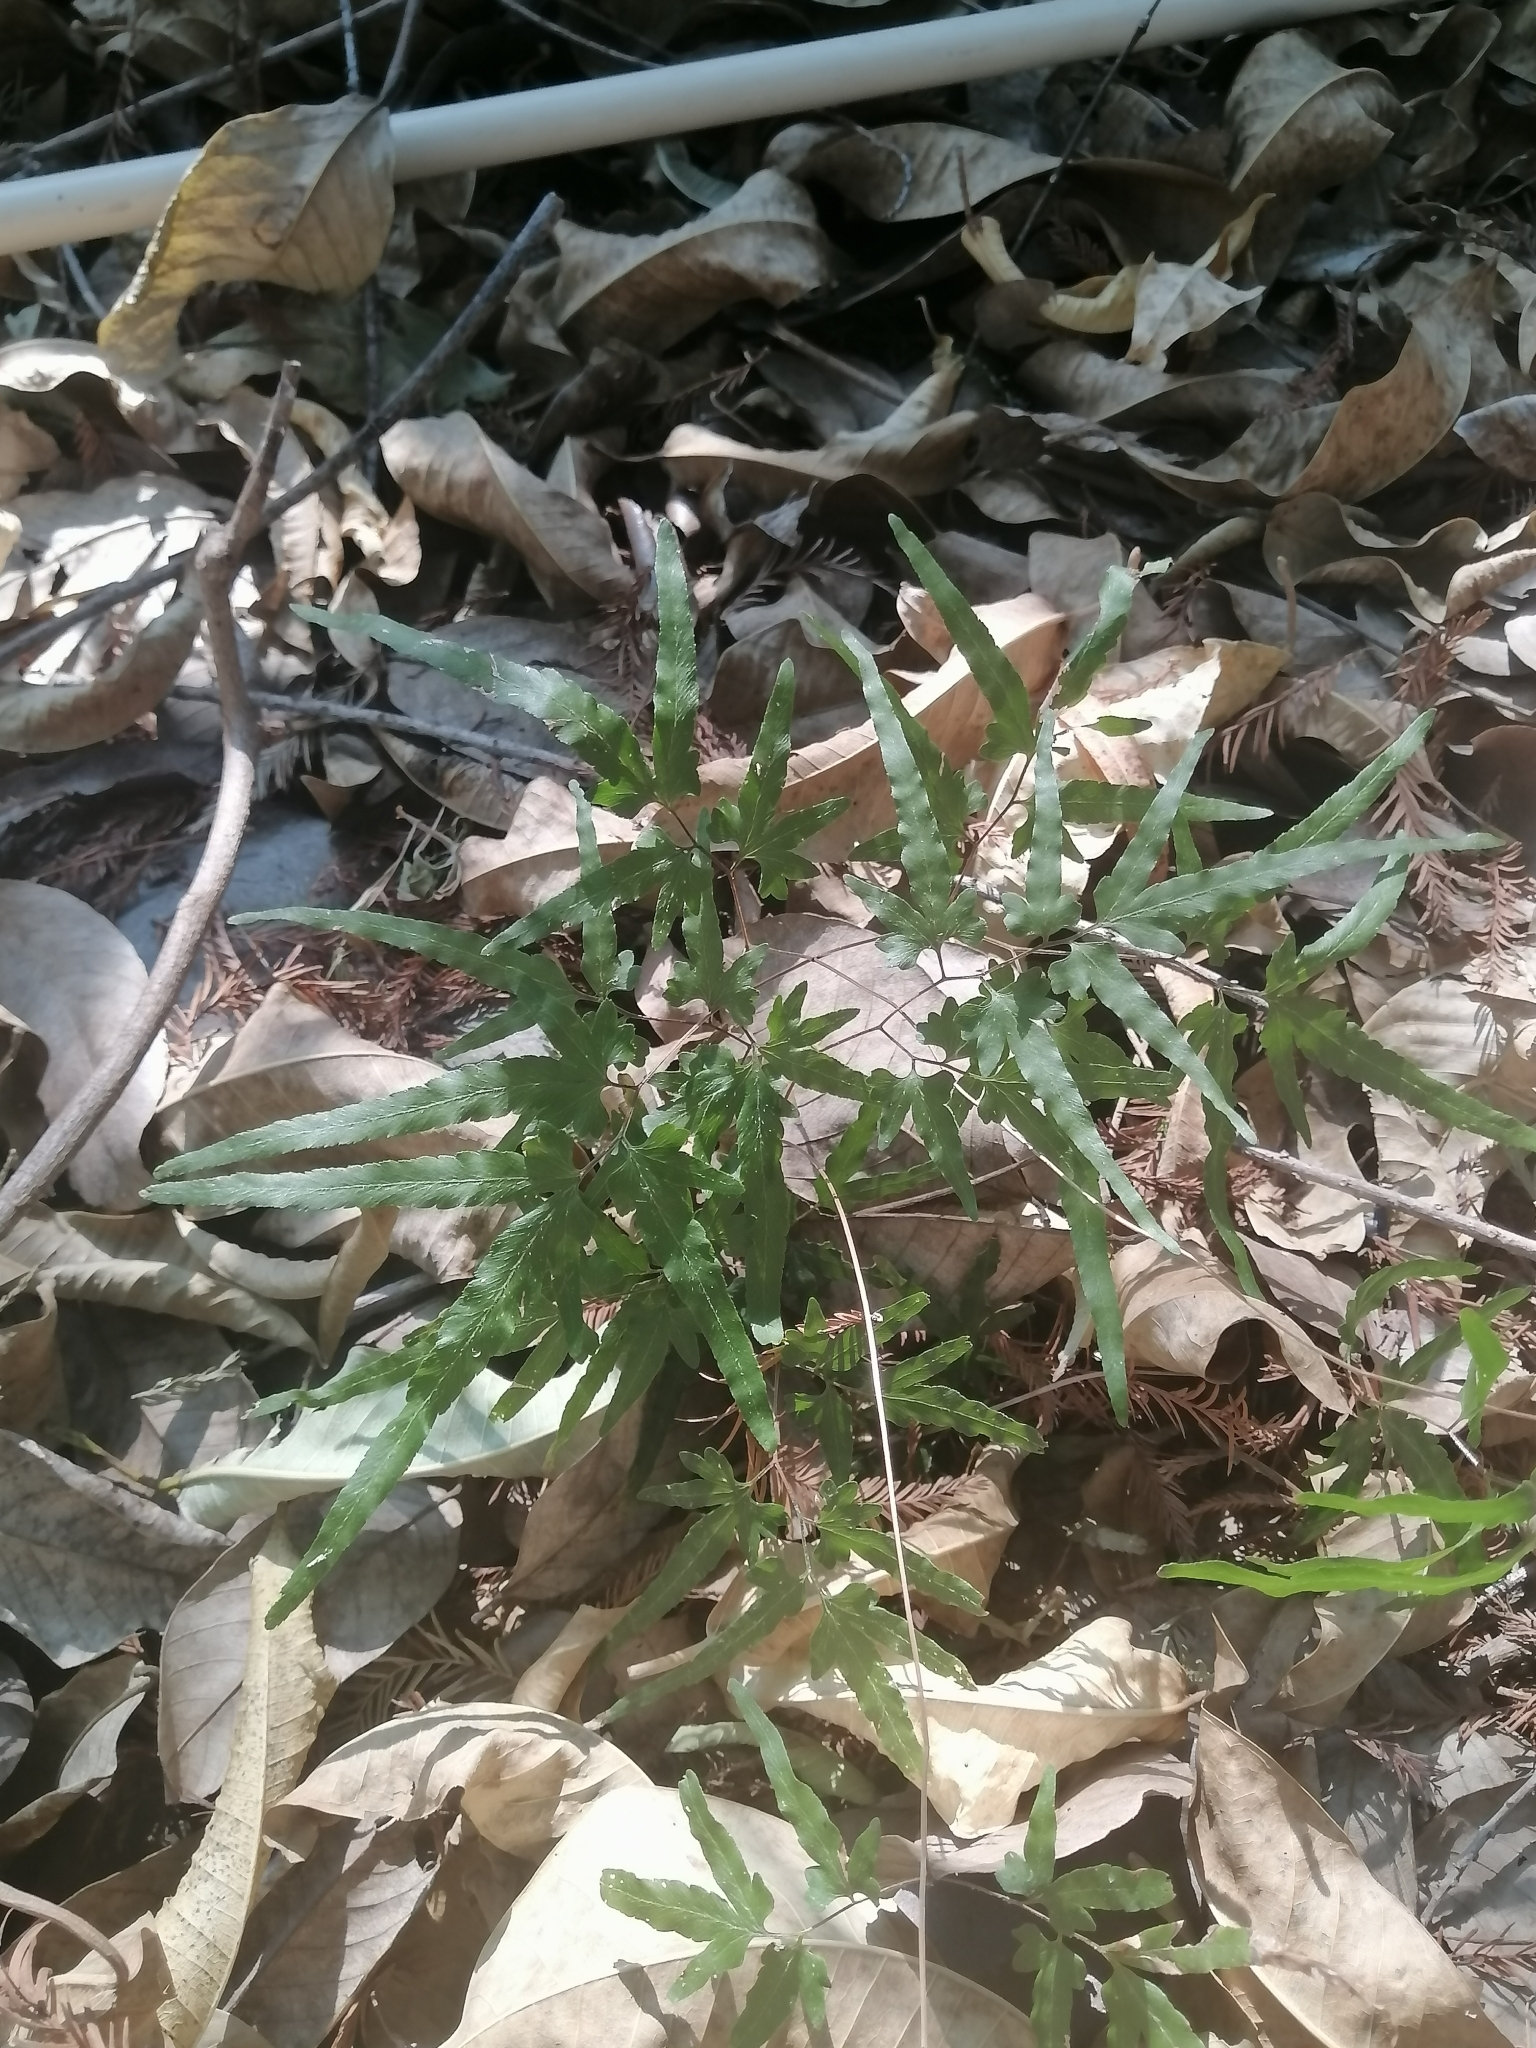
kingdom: Plantae
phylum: Tracheophyta
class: Polypodiopsida
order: Schizaeales
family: Lygodiaceae
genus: Lygodium
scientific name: Lygodium venustum
